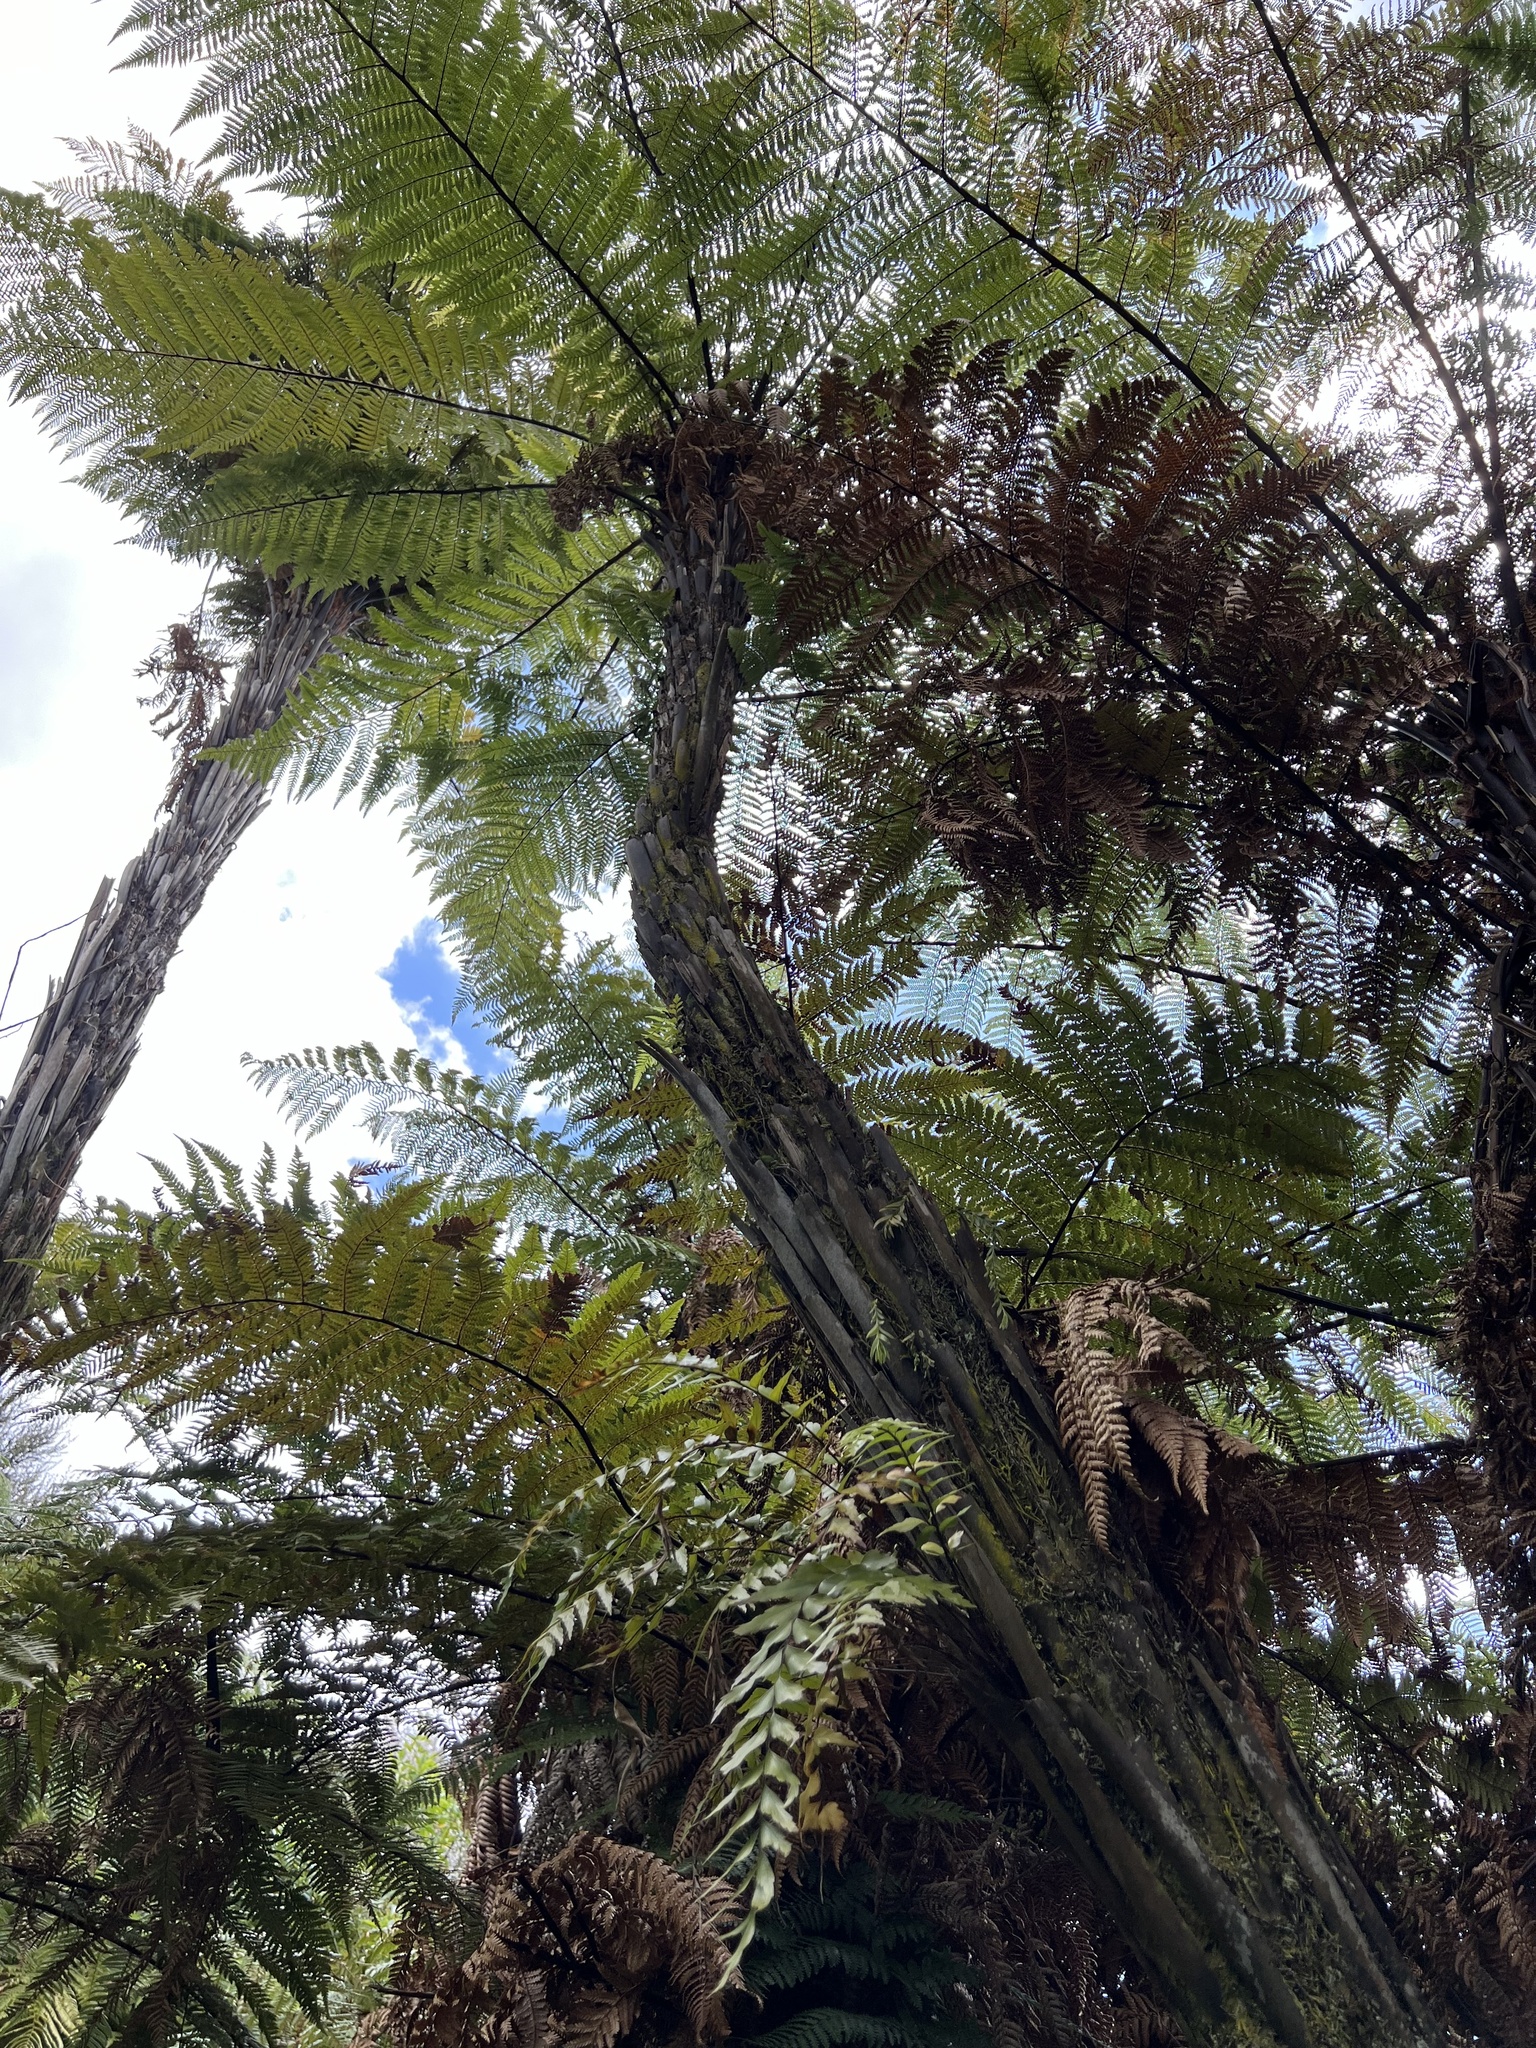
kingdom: Plantae
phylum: Tracheophyta
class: Polypodiopsida
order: Cyatheales
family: Dicksoniaceae
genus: Dicksonia
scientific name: Dicksonia squarrosa
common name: Hard treefern
